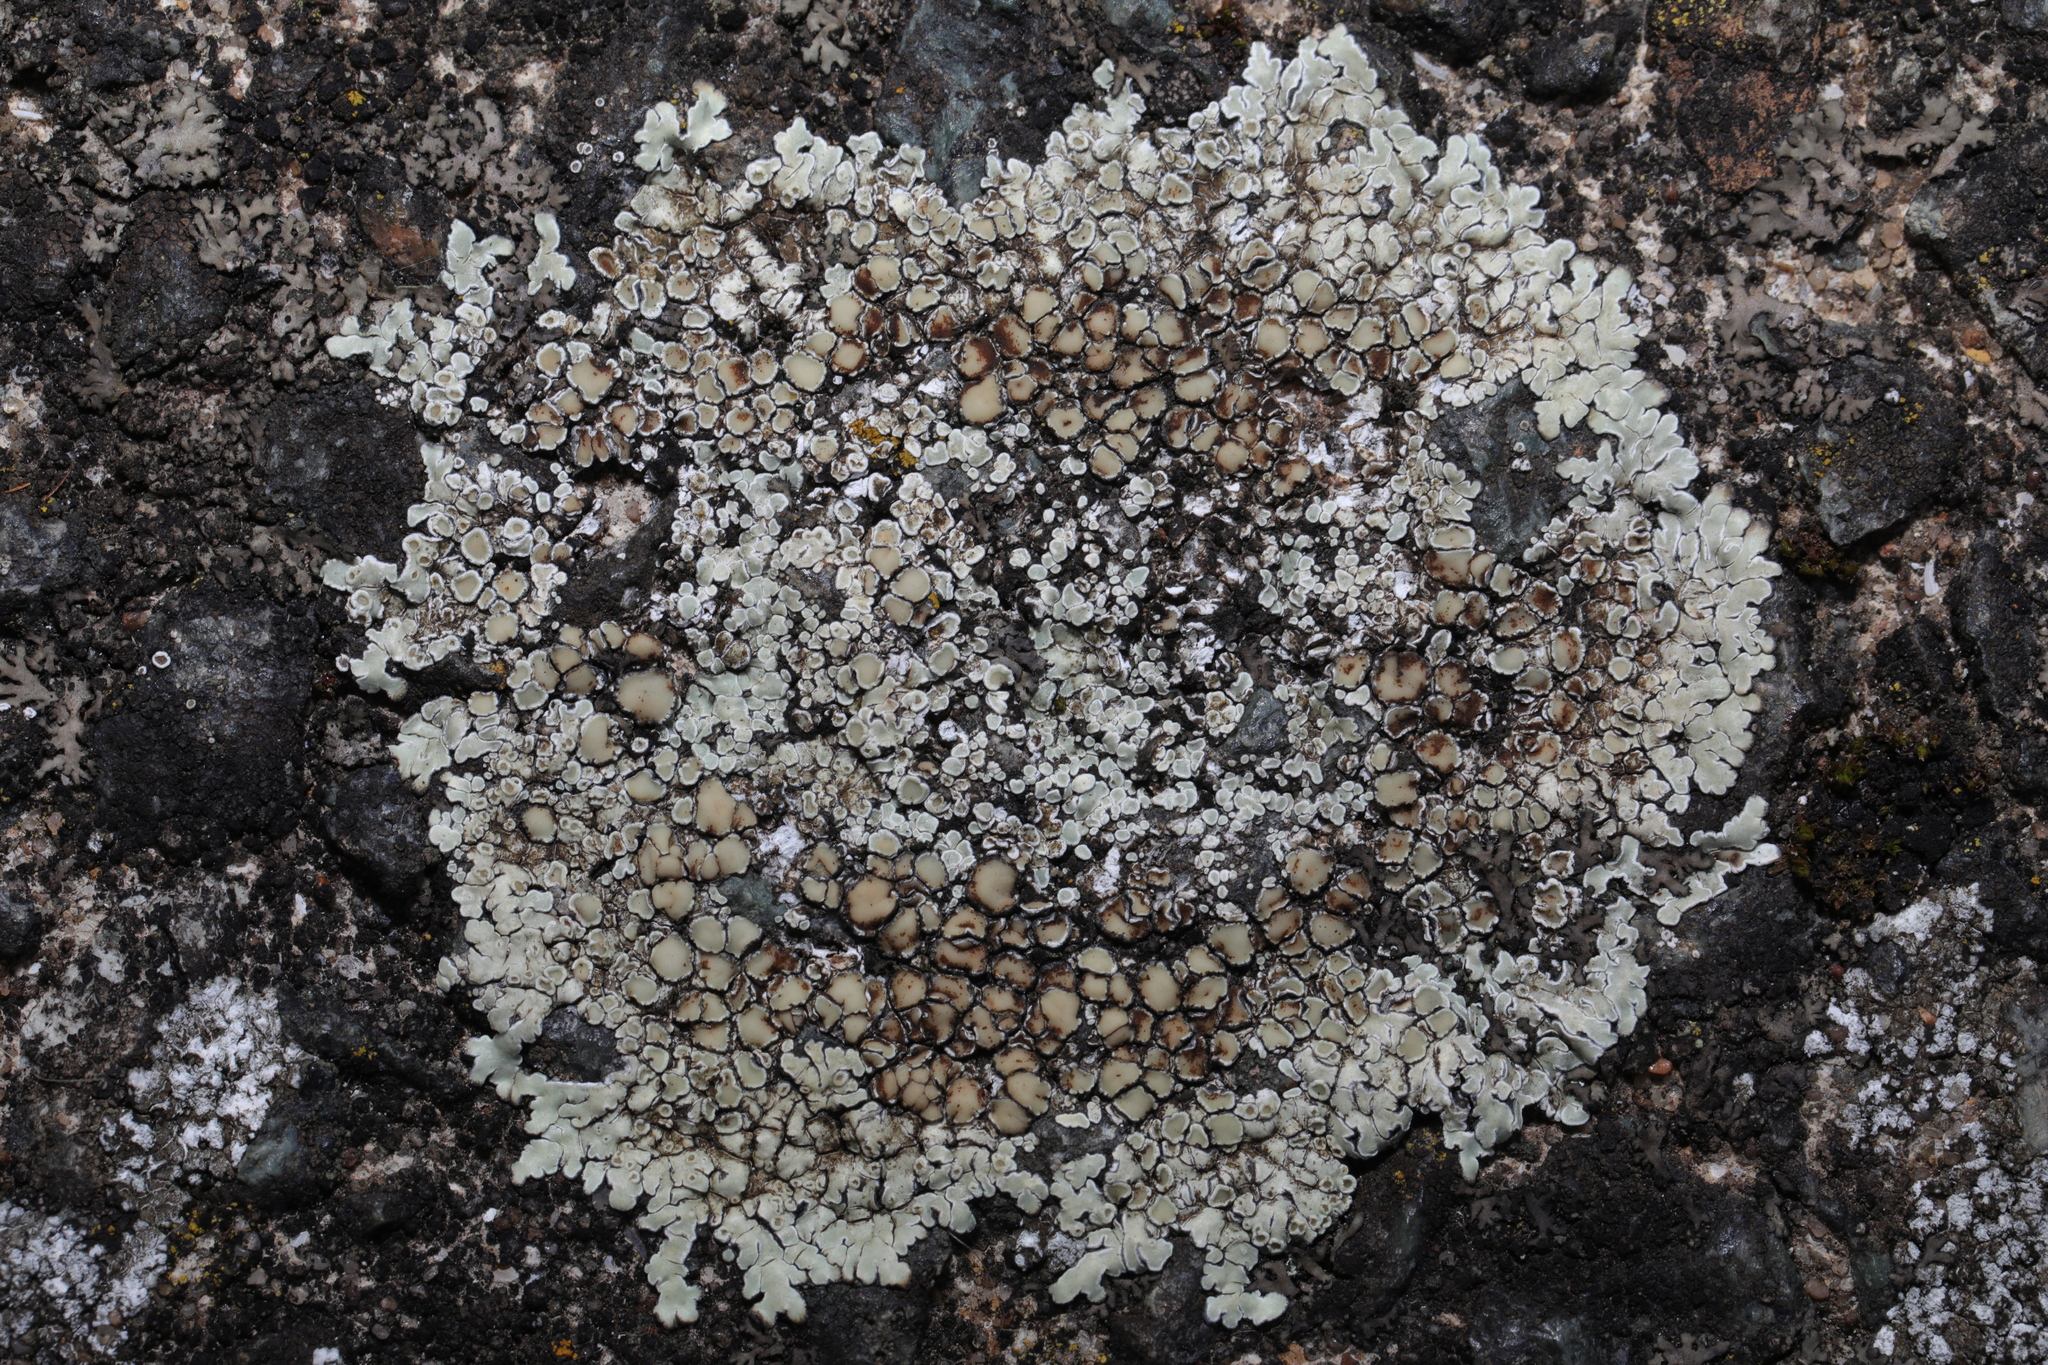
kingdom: Fungi
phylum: Ascomycota
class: Lecanoromycetes
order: Lecanorales
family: Lecanoraceae
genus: Protoparmeliopsis
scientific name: Protoparmeliopsis muralis
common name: Stonewall rim lichen
